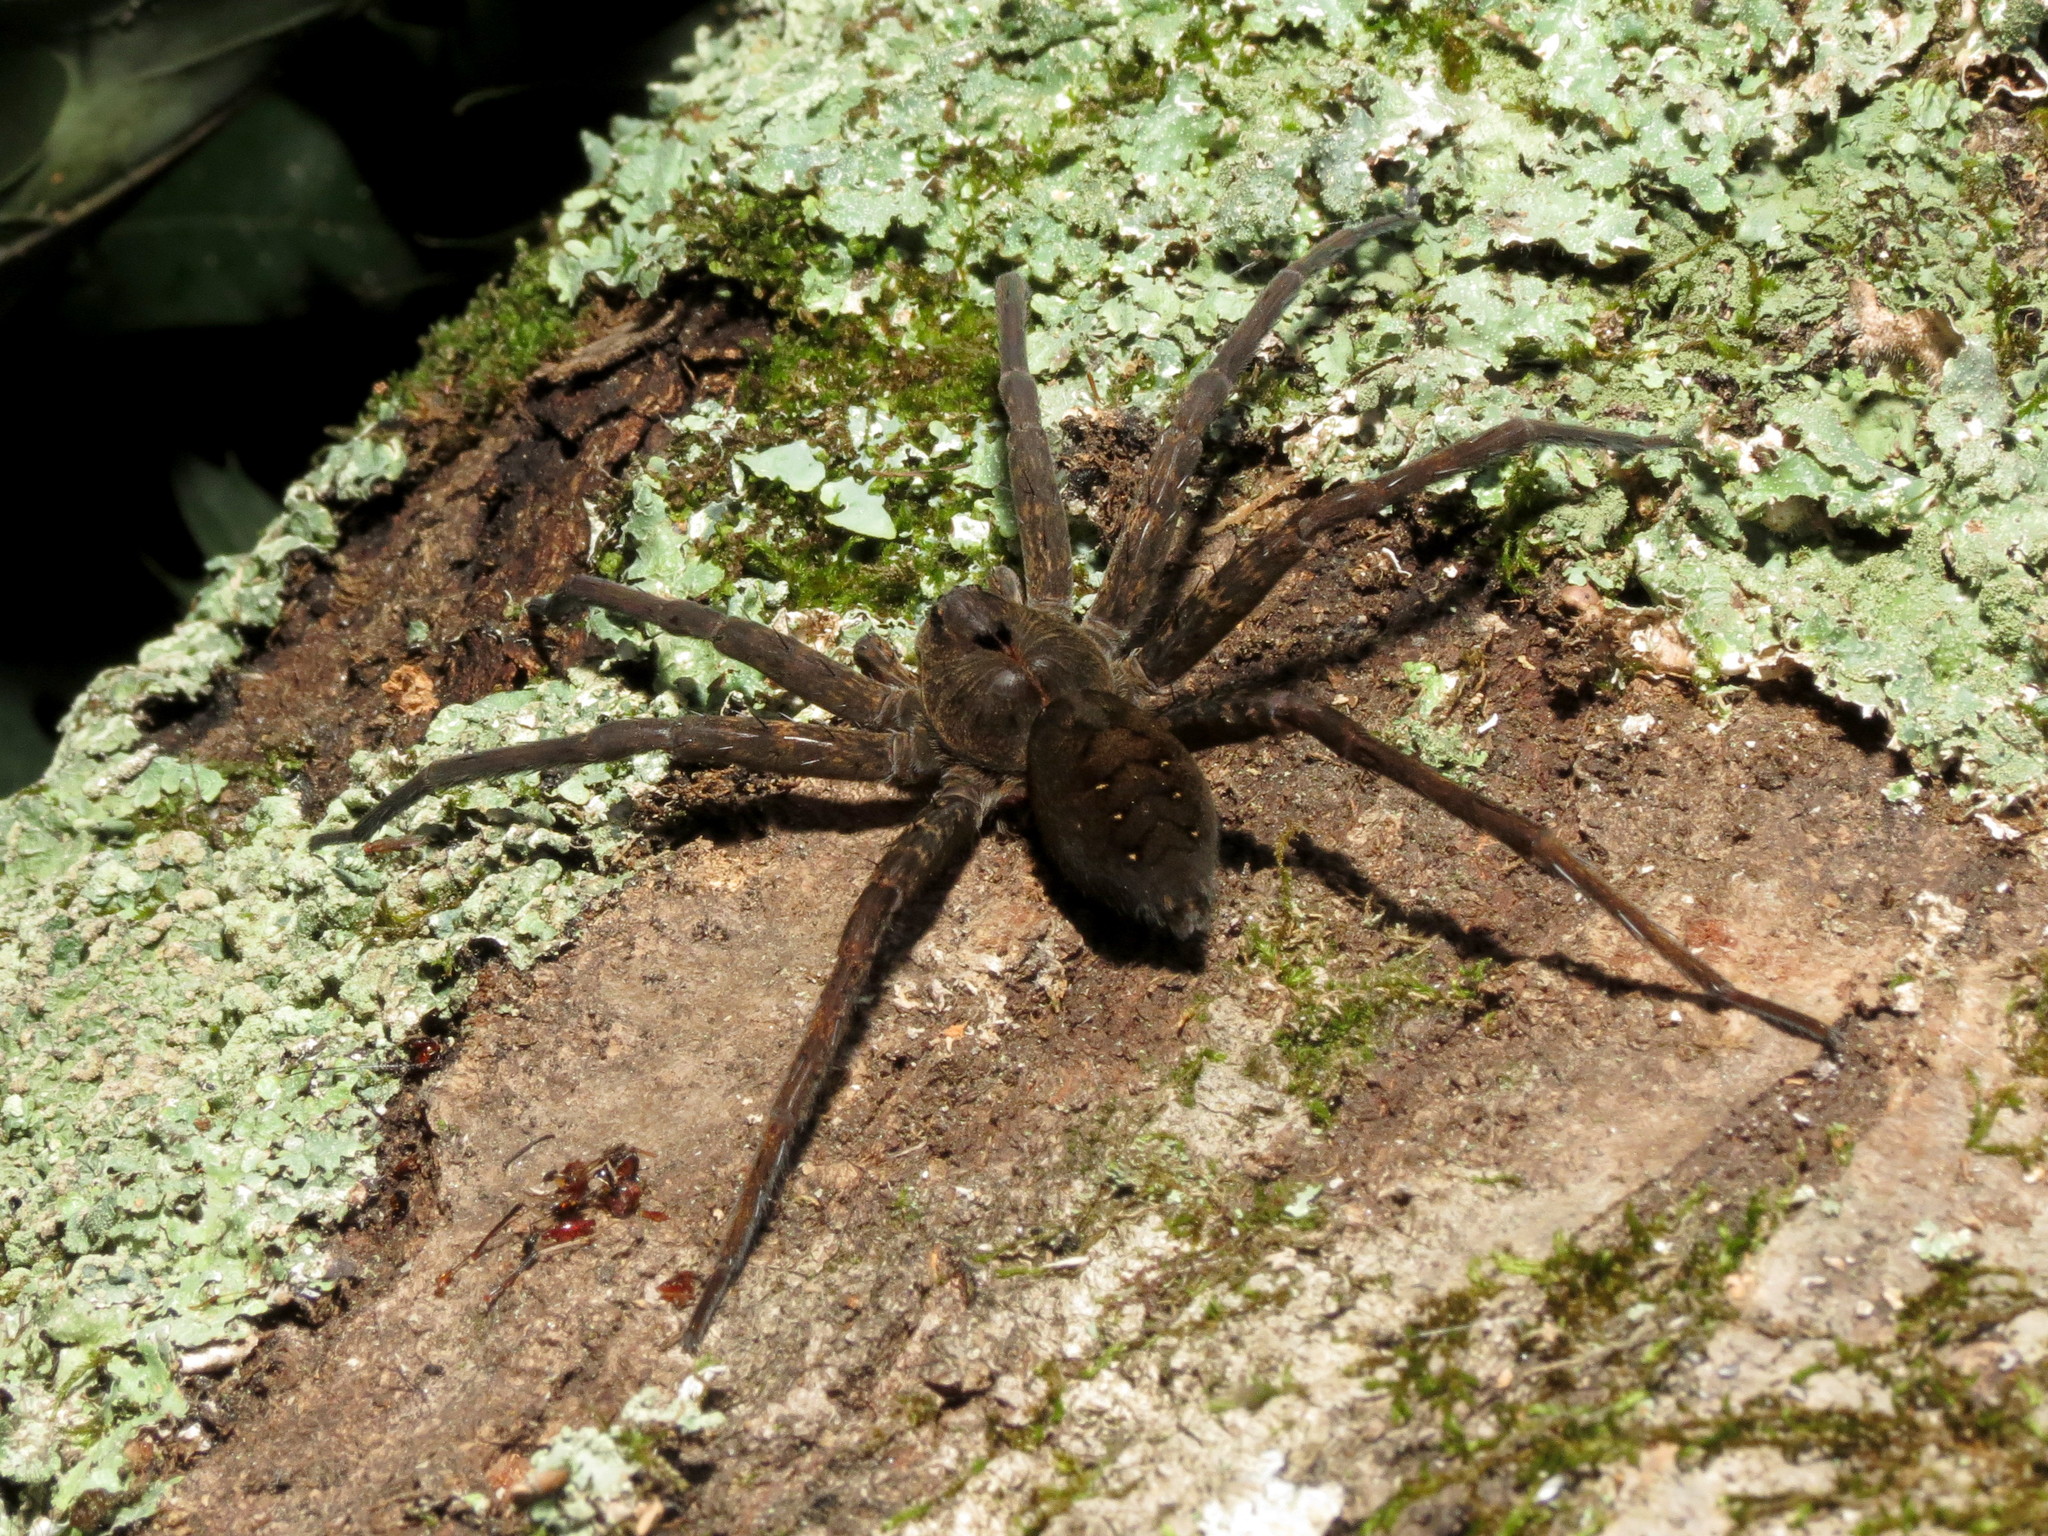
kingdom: Animalia
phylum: Arthropoda
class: Arachnida
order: Araneae
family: Pisauridae
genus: Dolomedes
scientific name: Dolomedes vittatus
